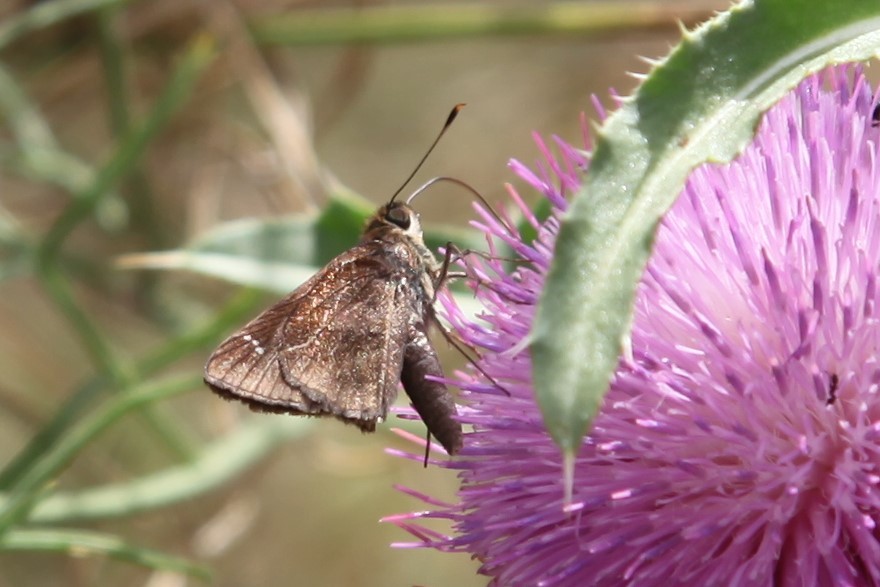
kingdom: Animalia
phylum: Arthropoda
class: Insecta
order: Lepidoptera
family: Hesperiidae
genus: Lerema
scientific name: Lerema accius
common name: Clouded skipper
